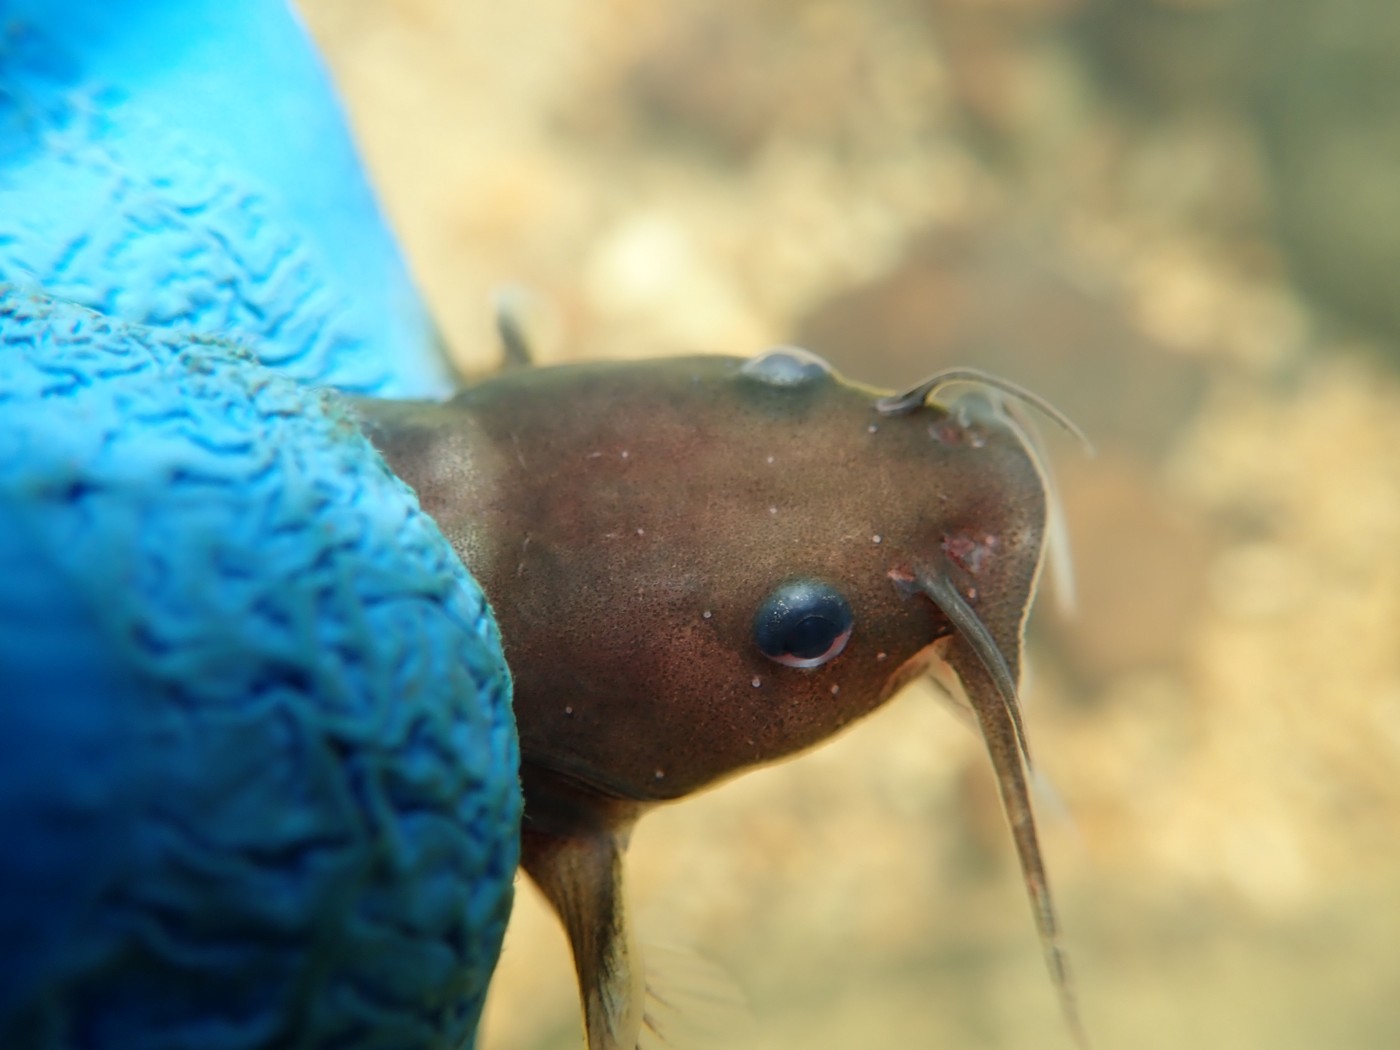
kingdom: Animalia
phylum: Chordata
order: Siluriformes
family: Ictaluridae
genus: Noturus
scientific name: Noturus flavus
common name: Stonecat
